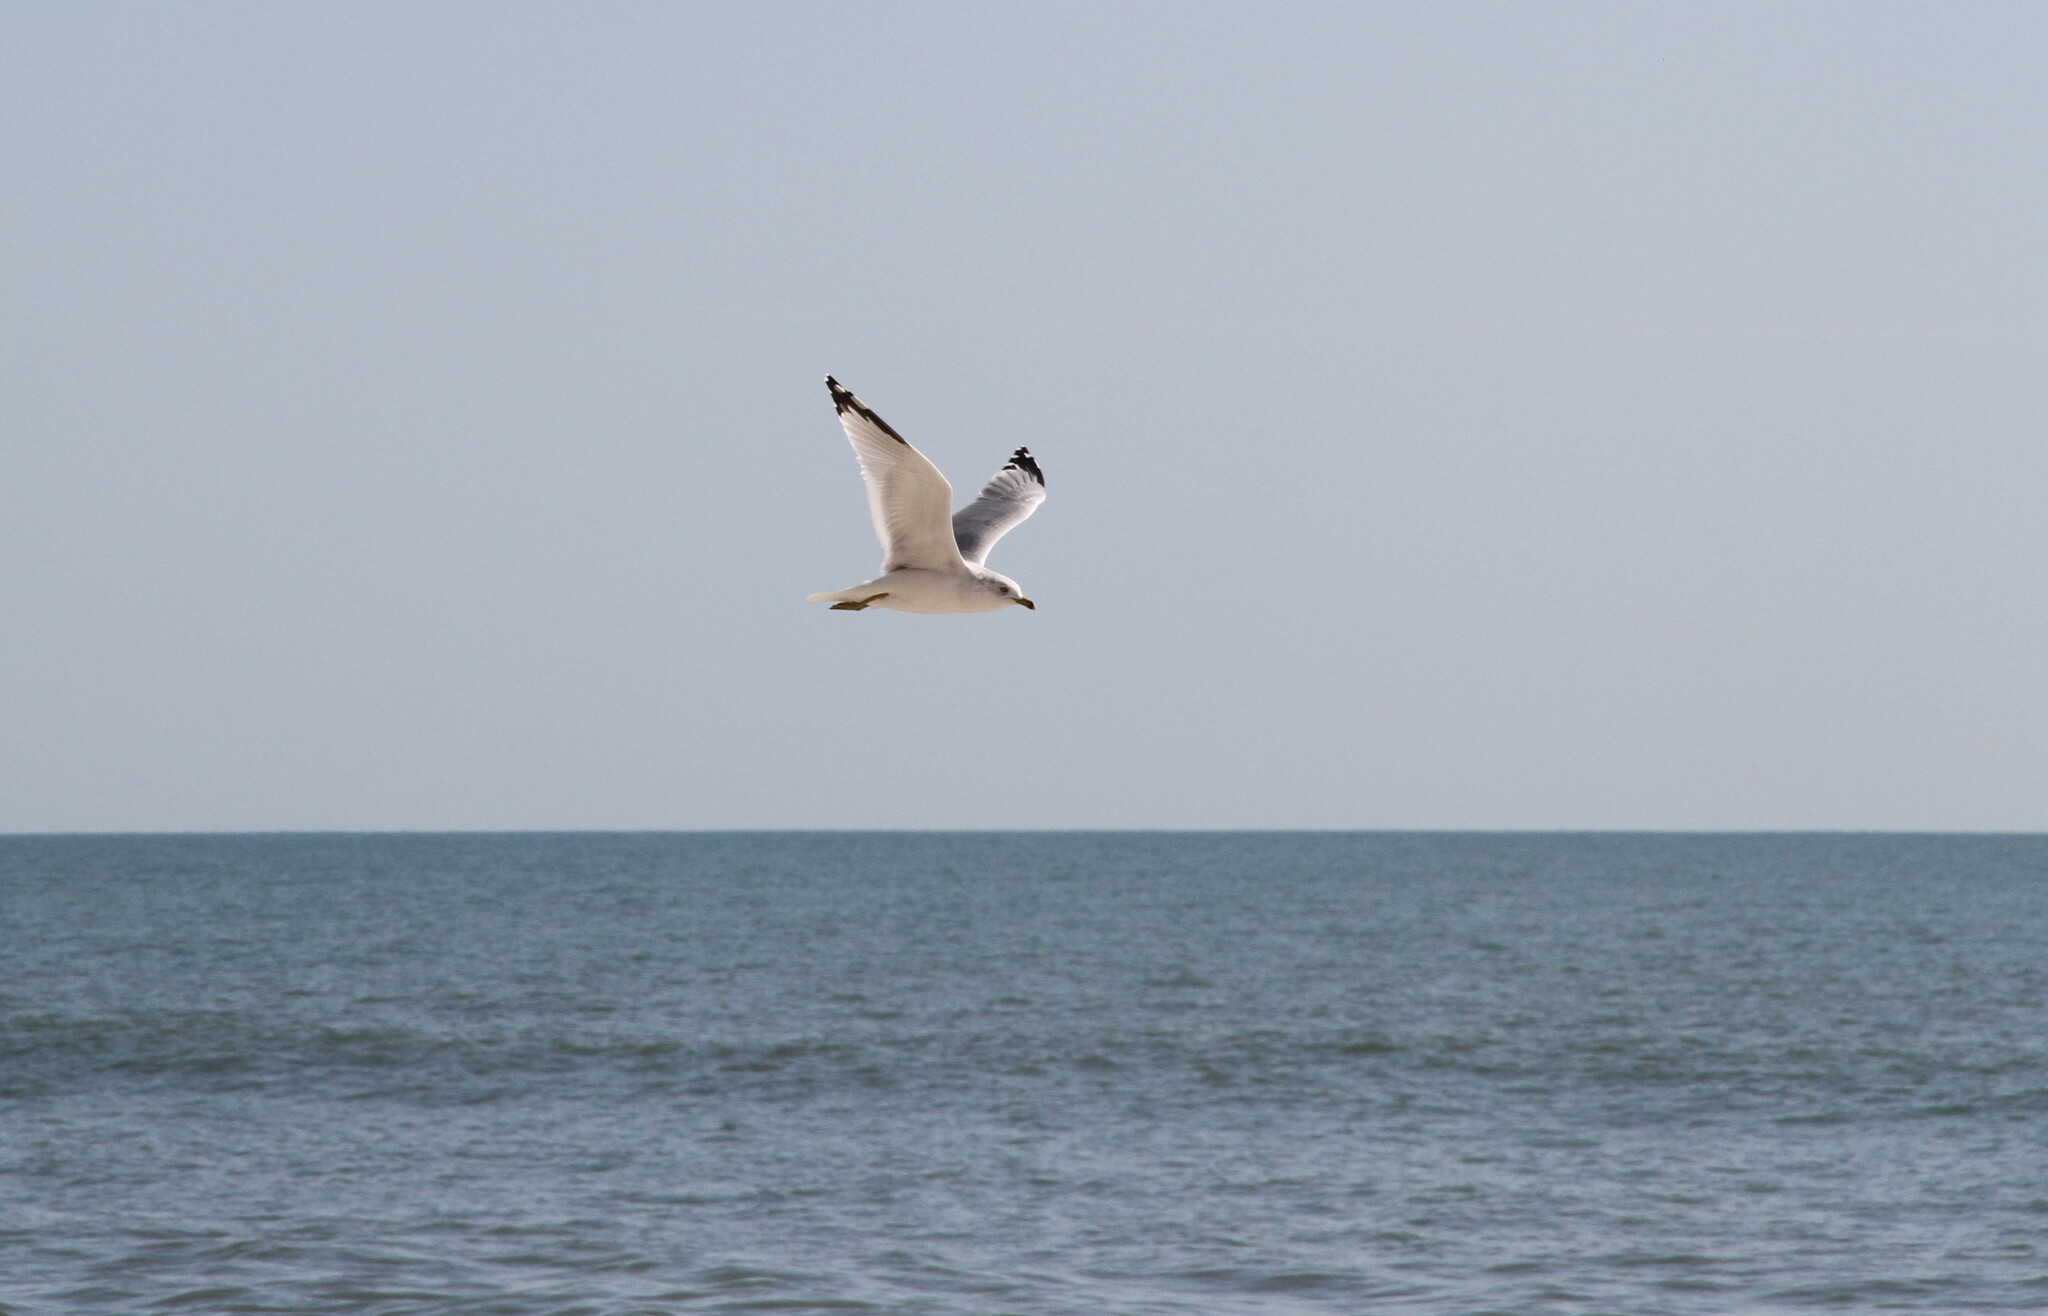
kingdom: Animalia
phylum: Chordata
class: Aves
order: Charadriiformes
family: Laridae
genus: Larus
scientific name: Larus delawarensis
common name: Ring-billed gull
